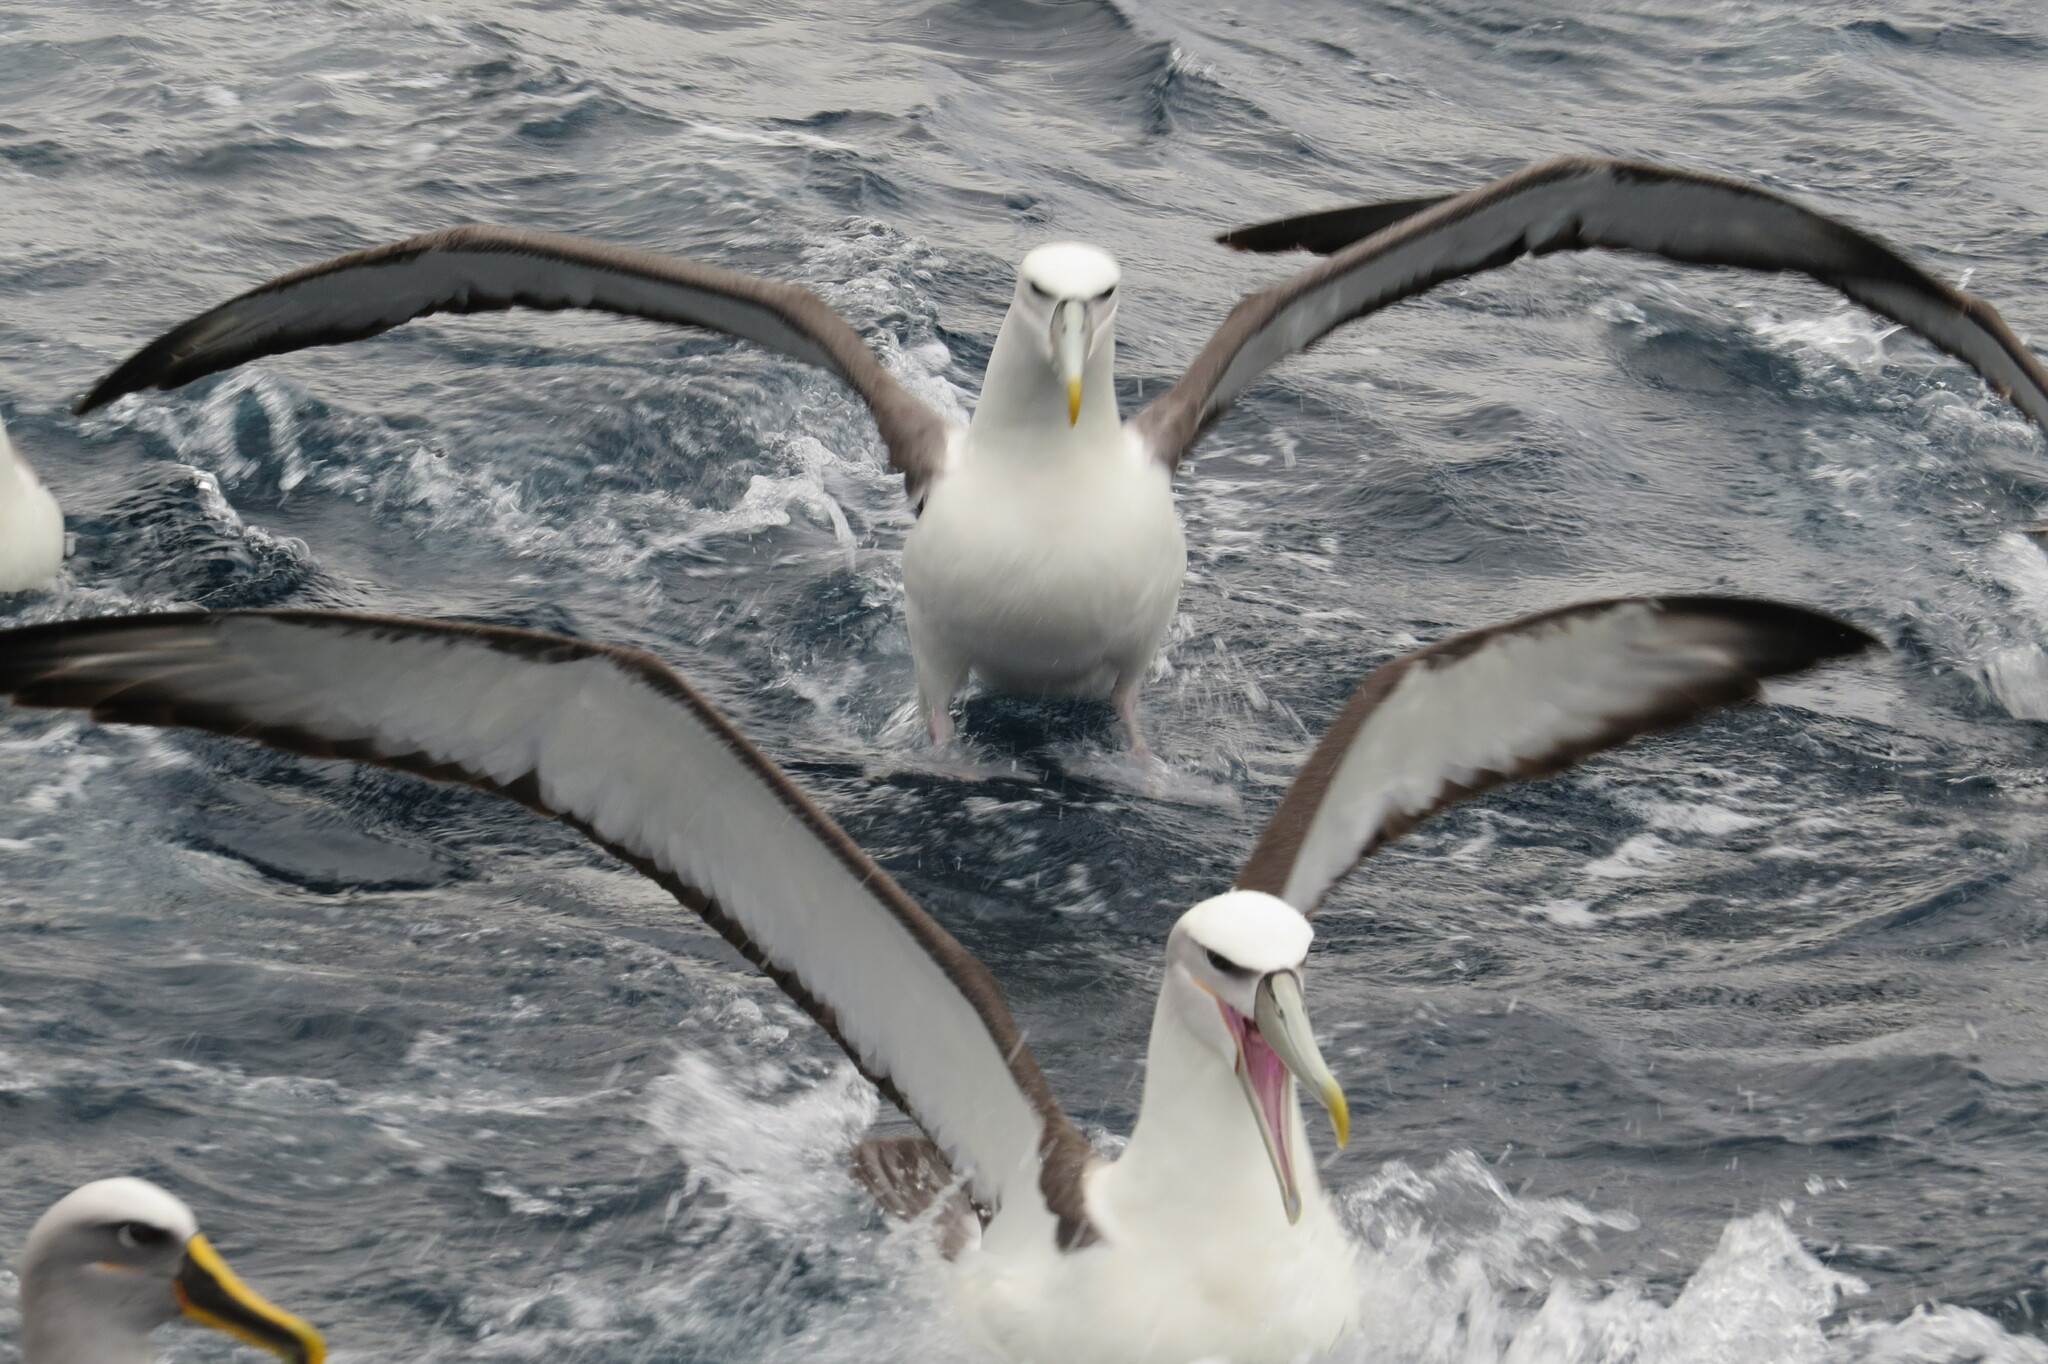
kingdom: Animalia
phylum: Chordata
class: Aves
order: Procellariiformes
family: Diomedeidae
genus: Thalassarche
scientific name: Thalassarche cauta
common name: Shy albatross
